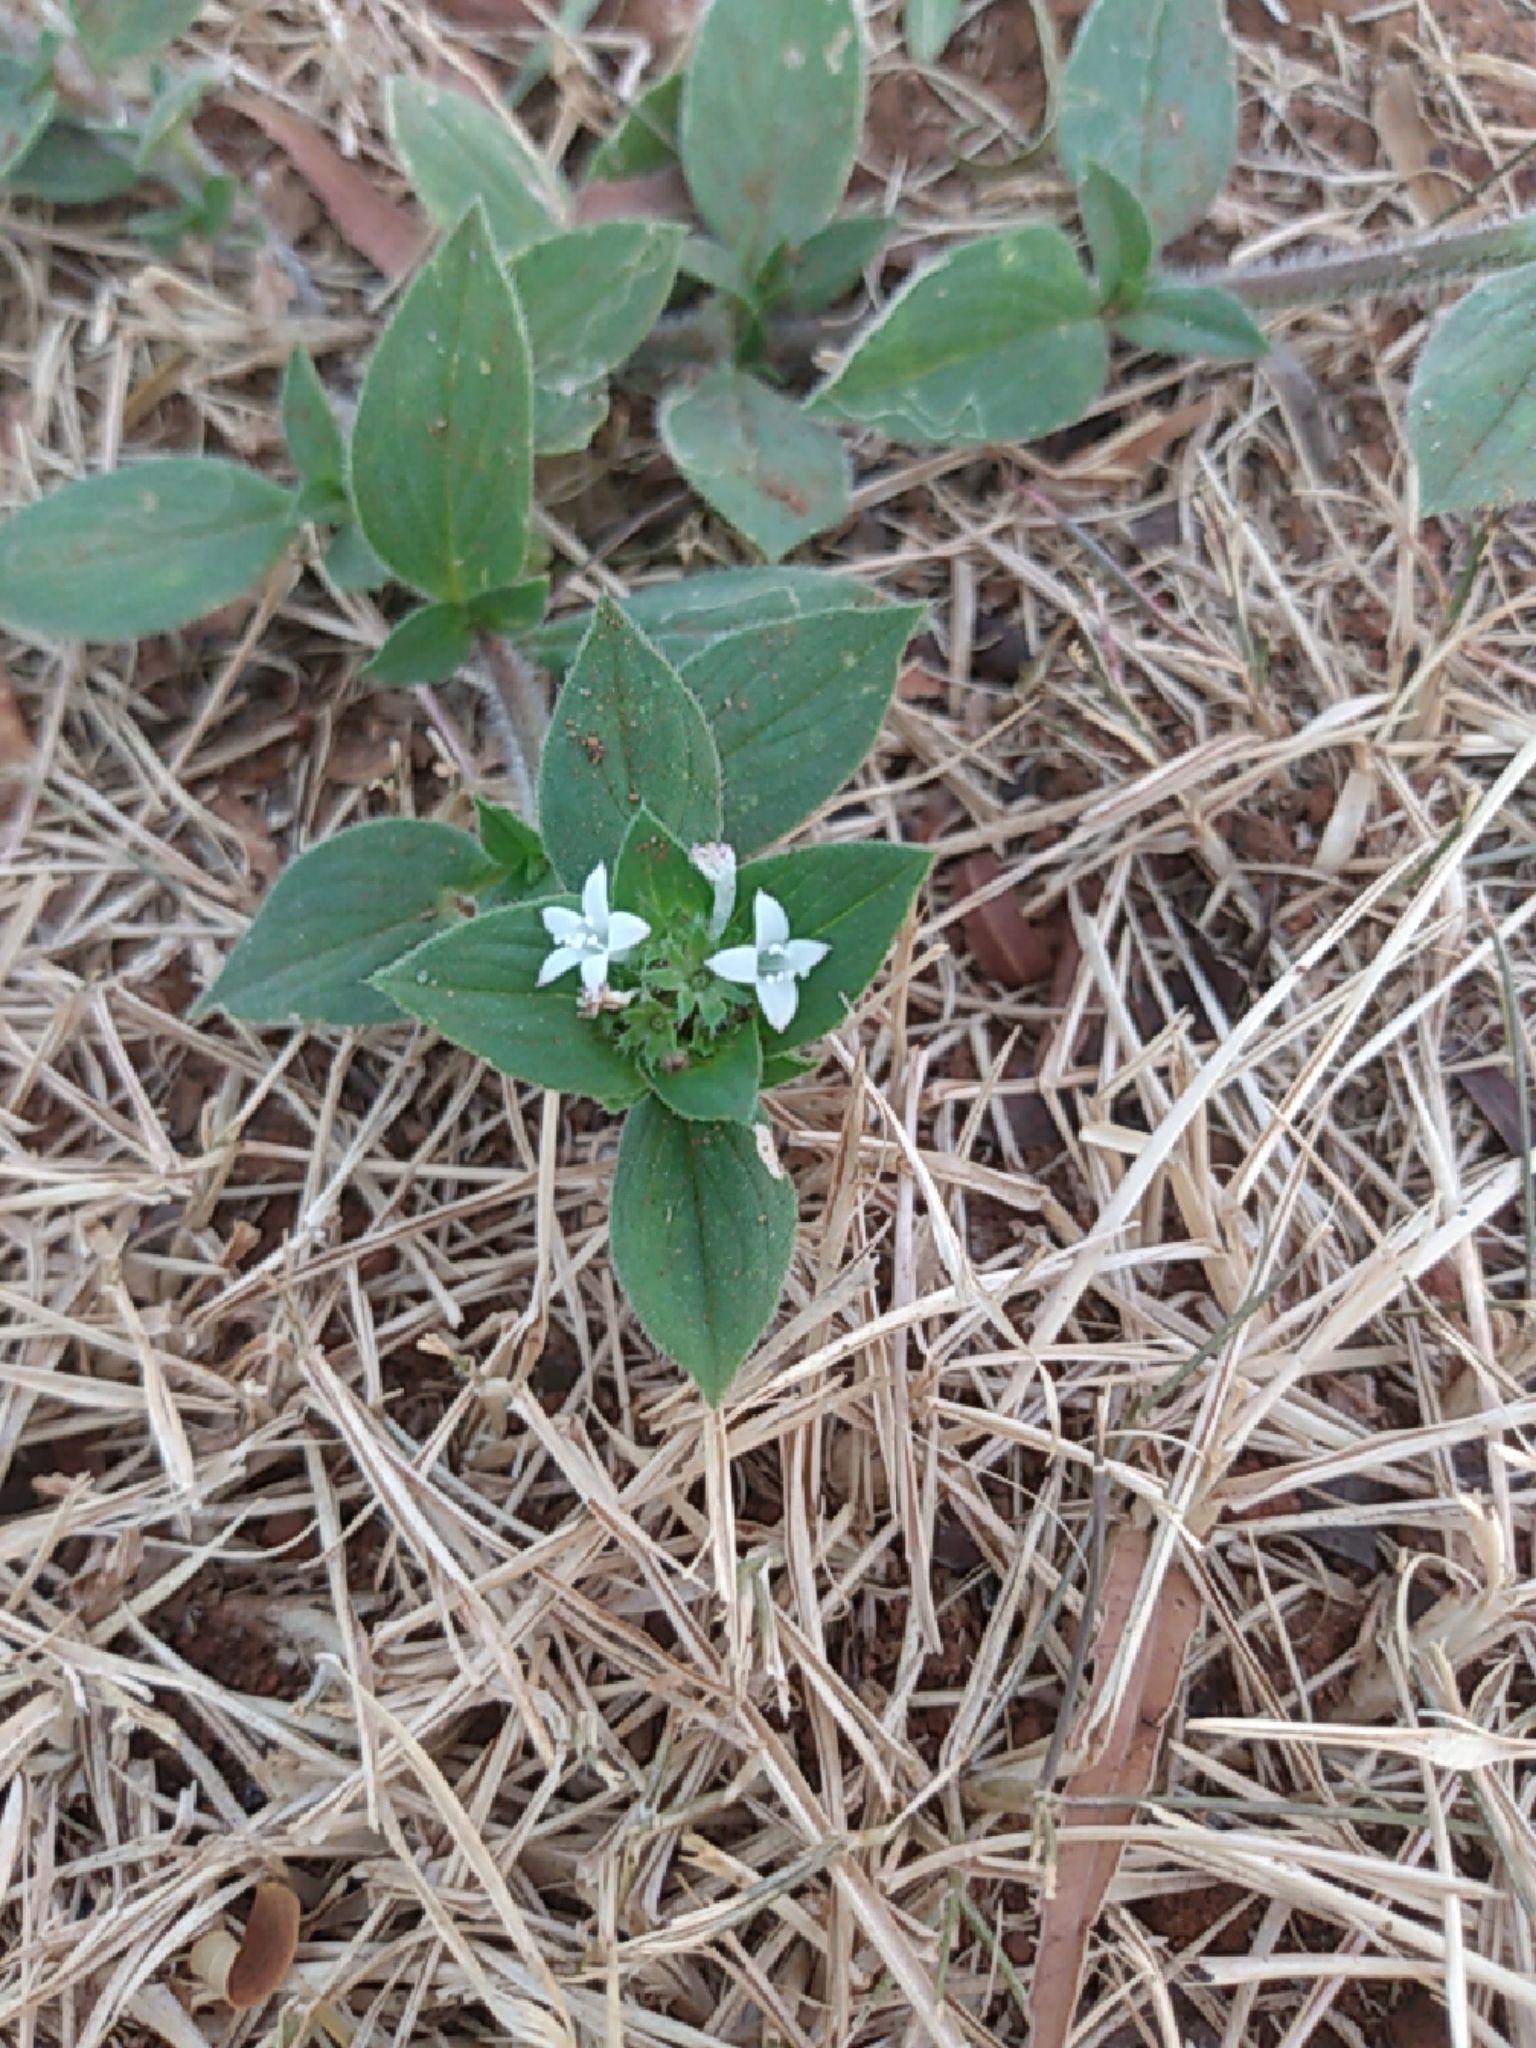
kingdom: Plantae
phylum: Tracheophyta
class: Magnoliopsida
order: Gentianales
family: Rubiaceae
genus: Richardia
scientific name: Richardia scabra
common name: Rough mexican clover
